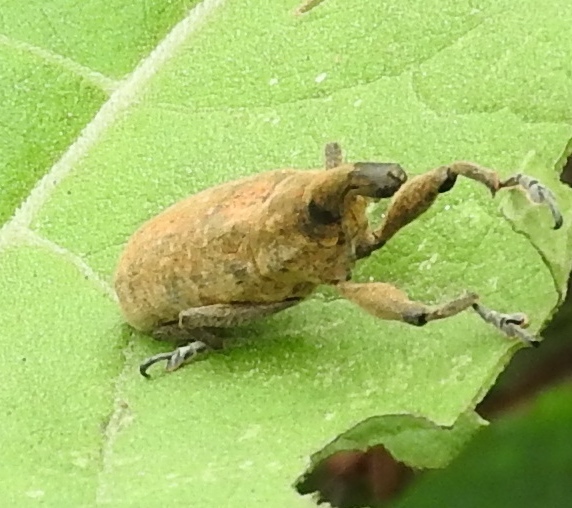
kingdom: Animalia
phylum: Arthropoda
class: Insecta
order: Coleoptera
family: Curculionidae
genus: Lixus
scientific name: Lixus
